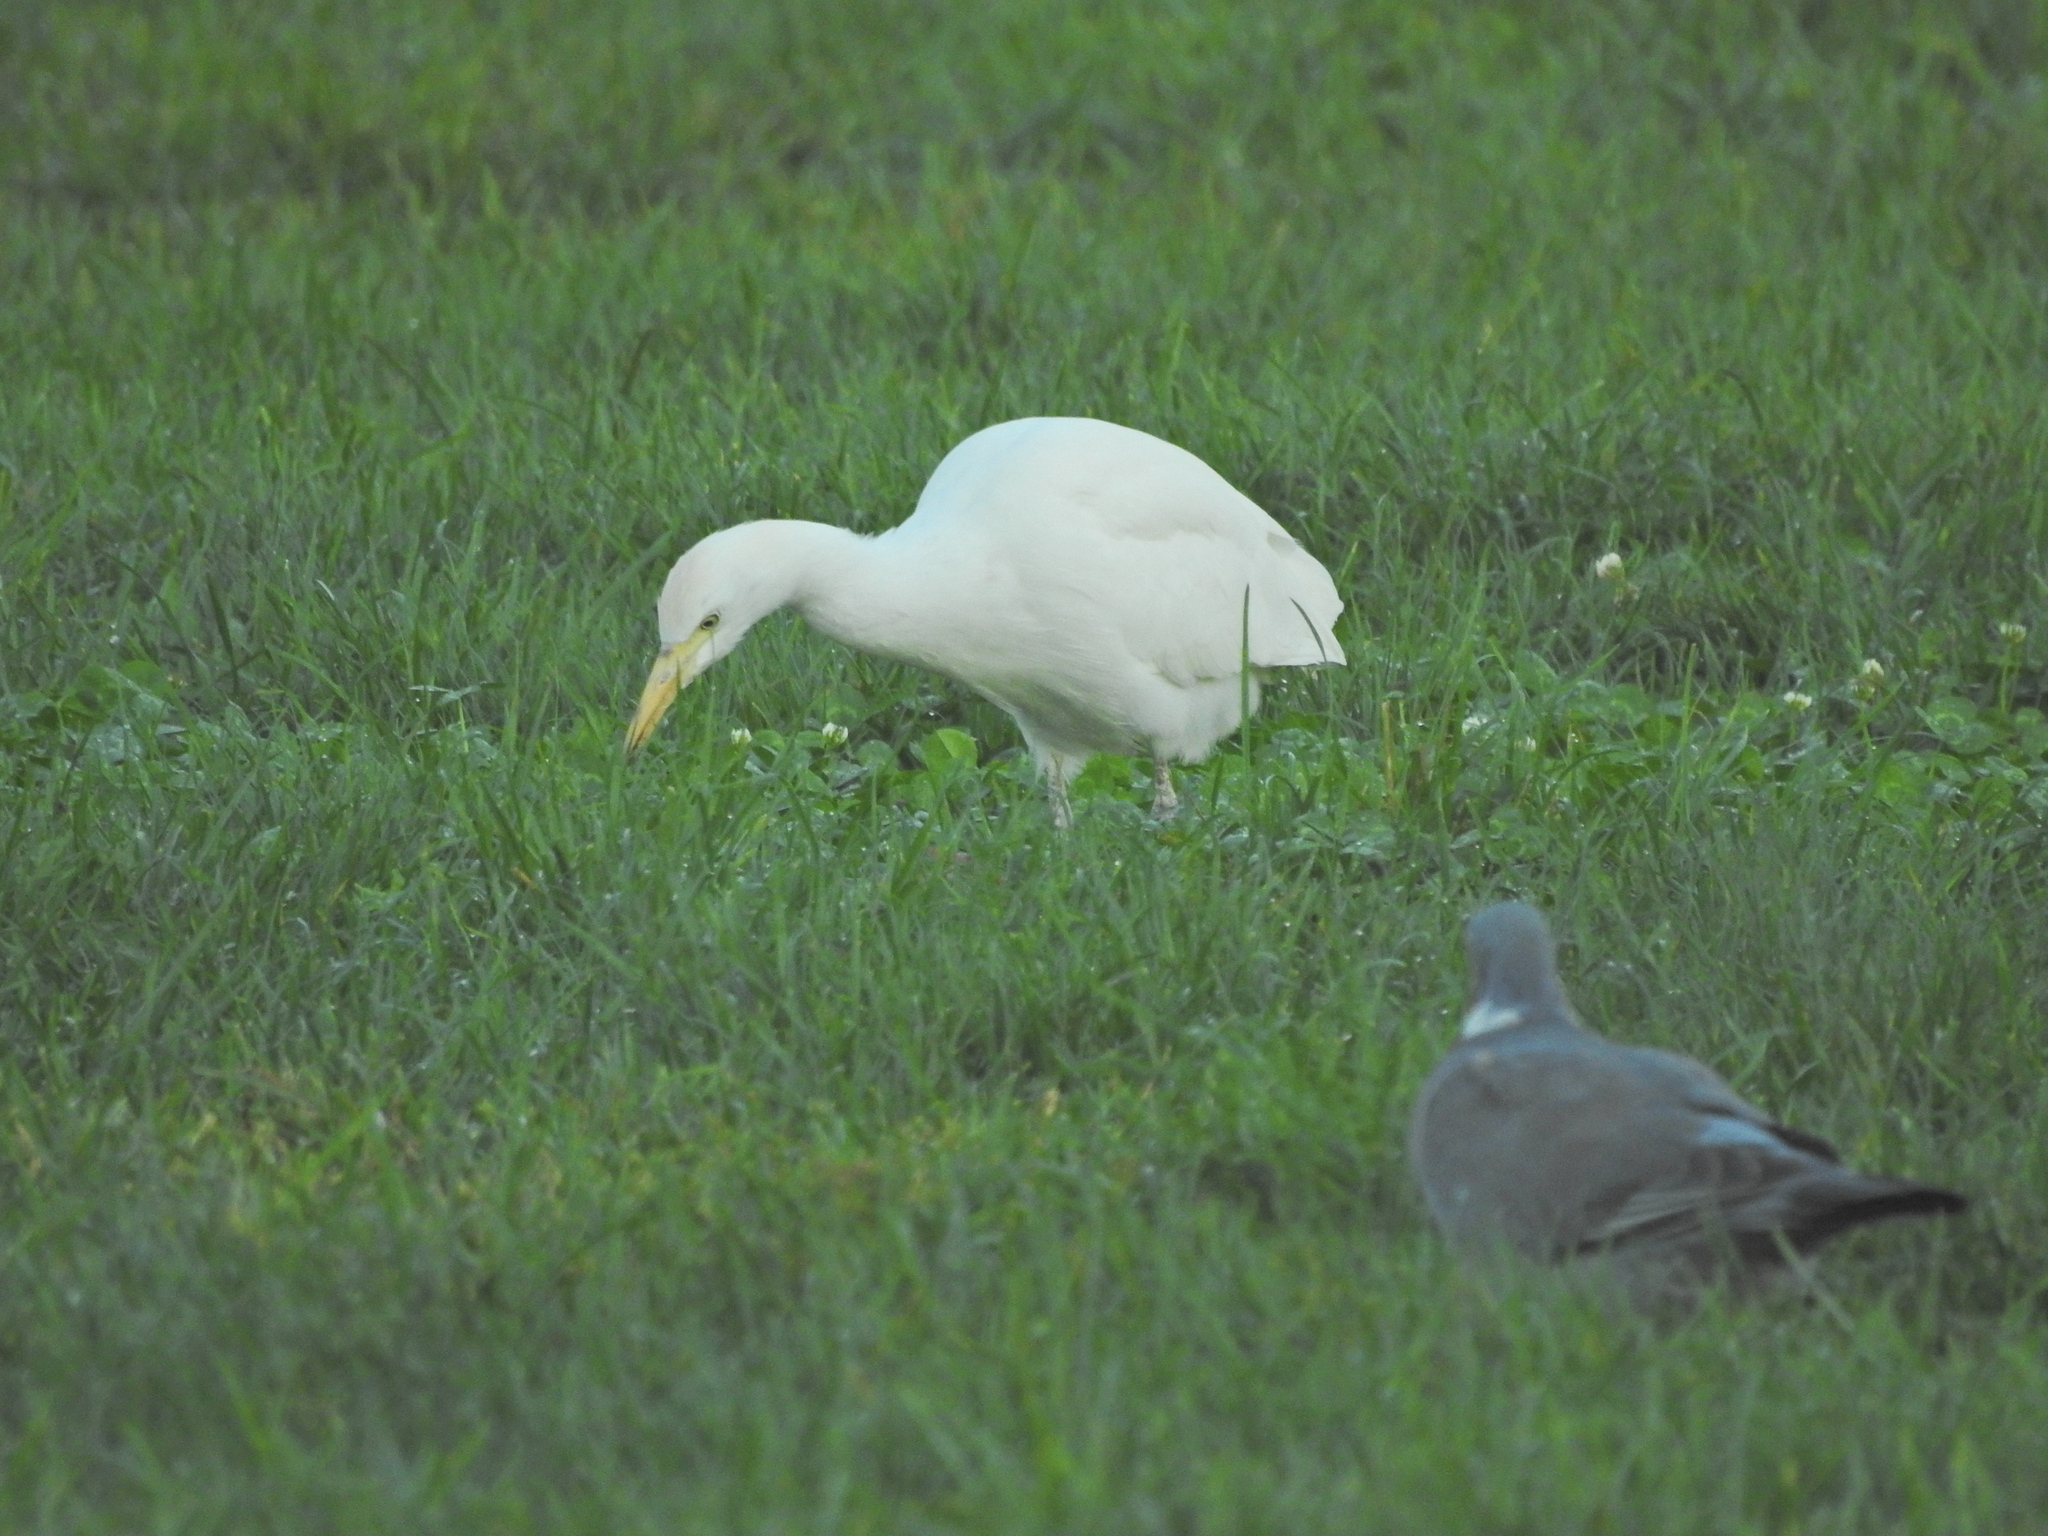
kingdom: Animalia
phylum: Chordata
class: Aves
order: Pelecaniformes
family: Ardeidae
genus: Bubulcus
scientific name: Bubulcus ibis
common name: Cattle egret
